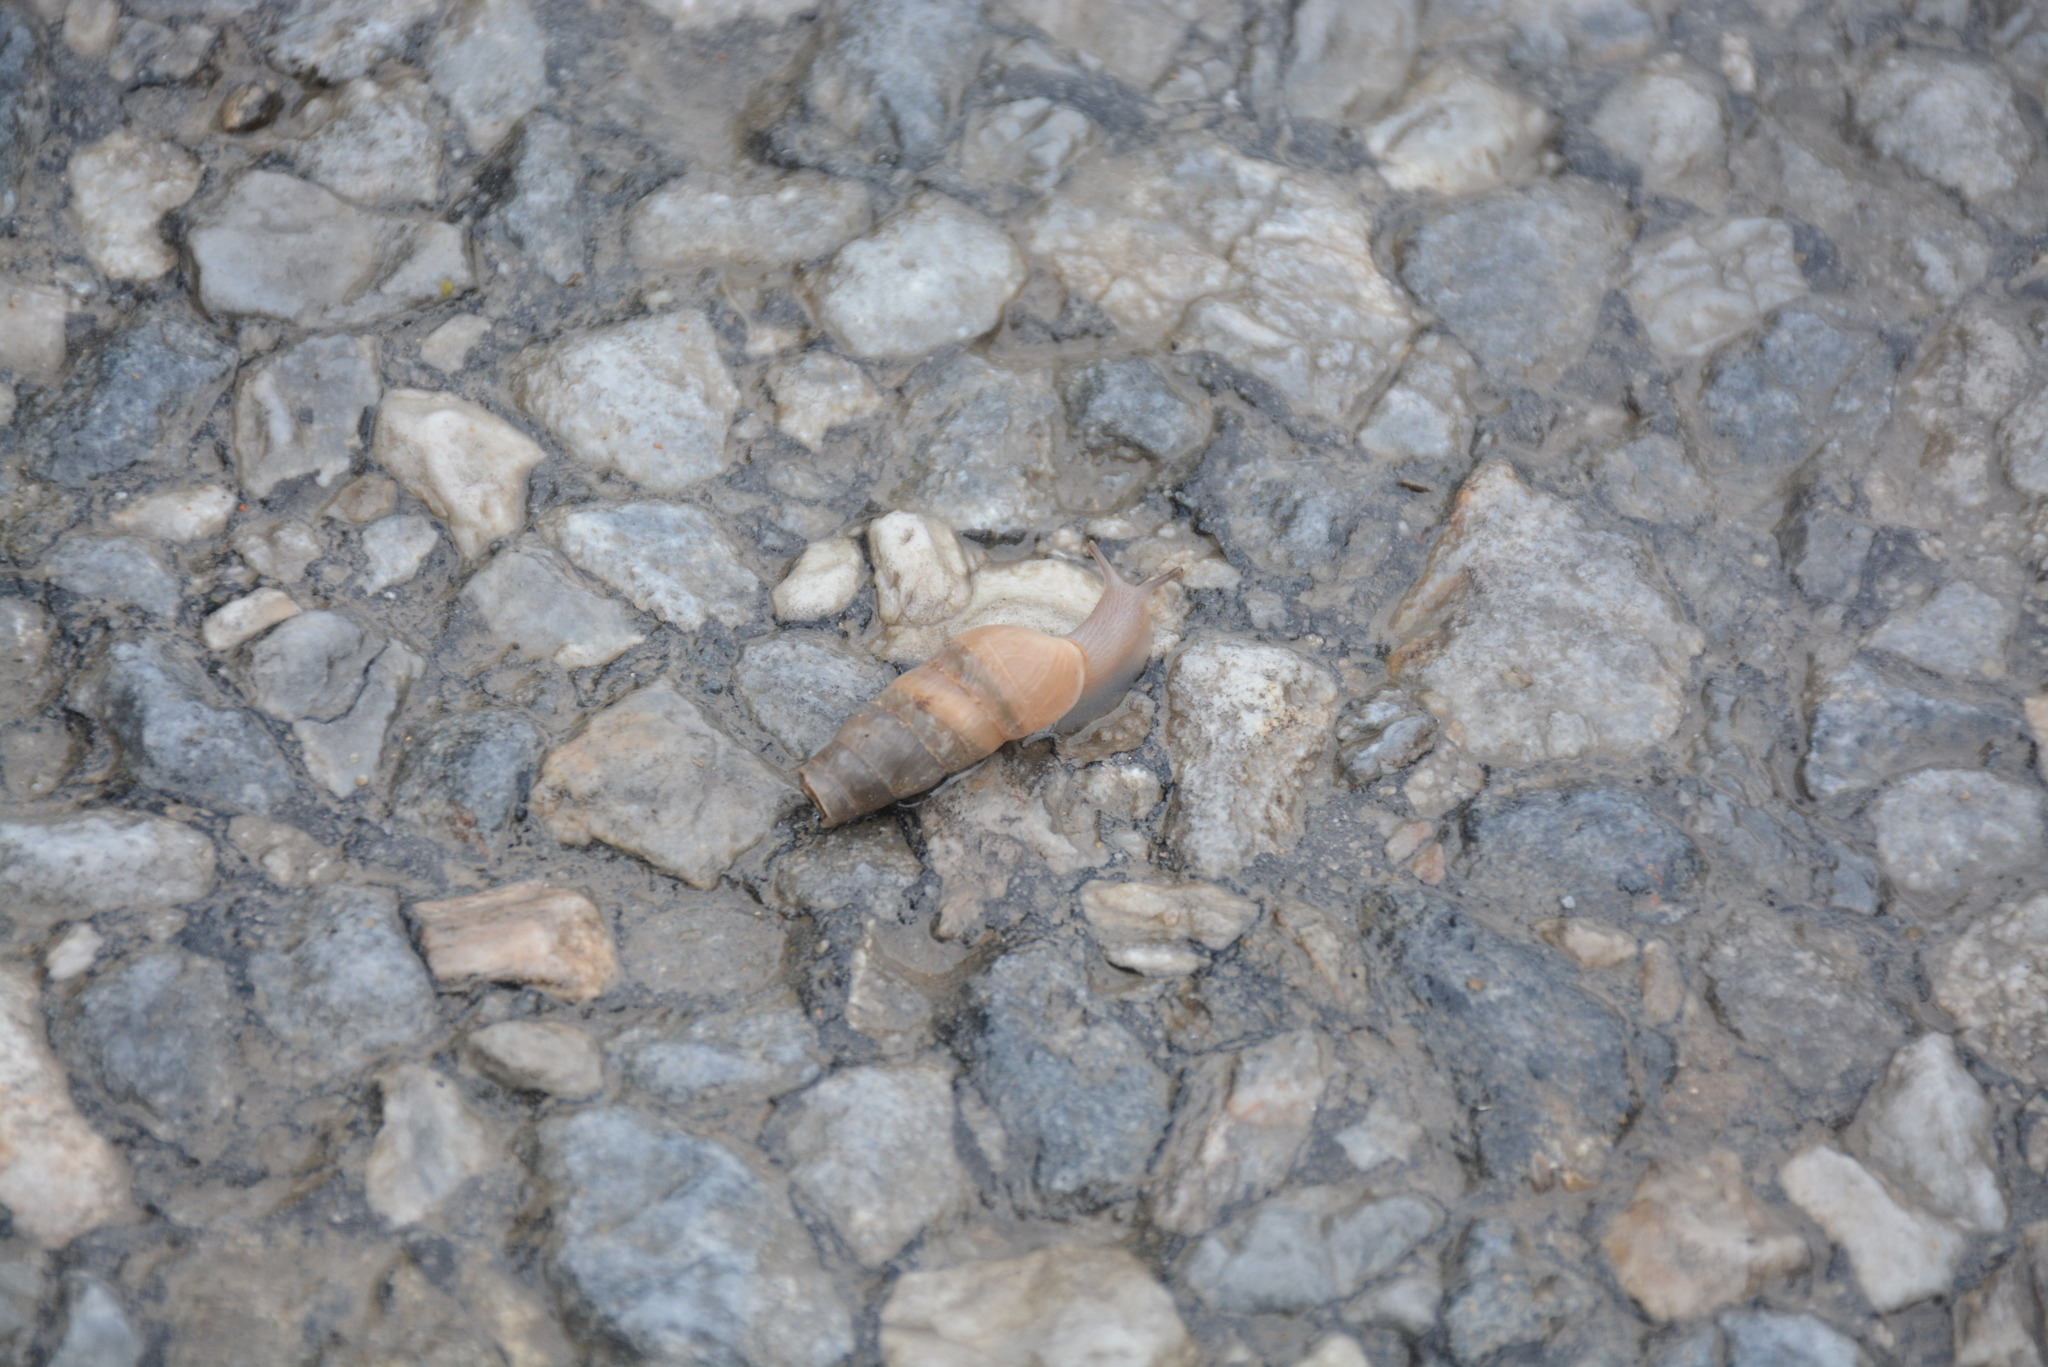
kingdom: Animalia
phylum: Mollusca
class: Gastropoda
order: Stylommatophora
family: Achatinidae
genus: Rumina
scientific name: Rumina saharica
